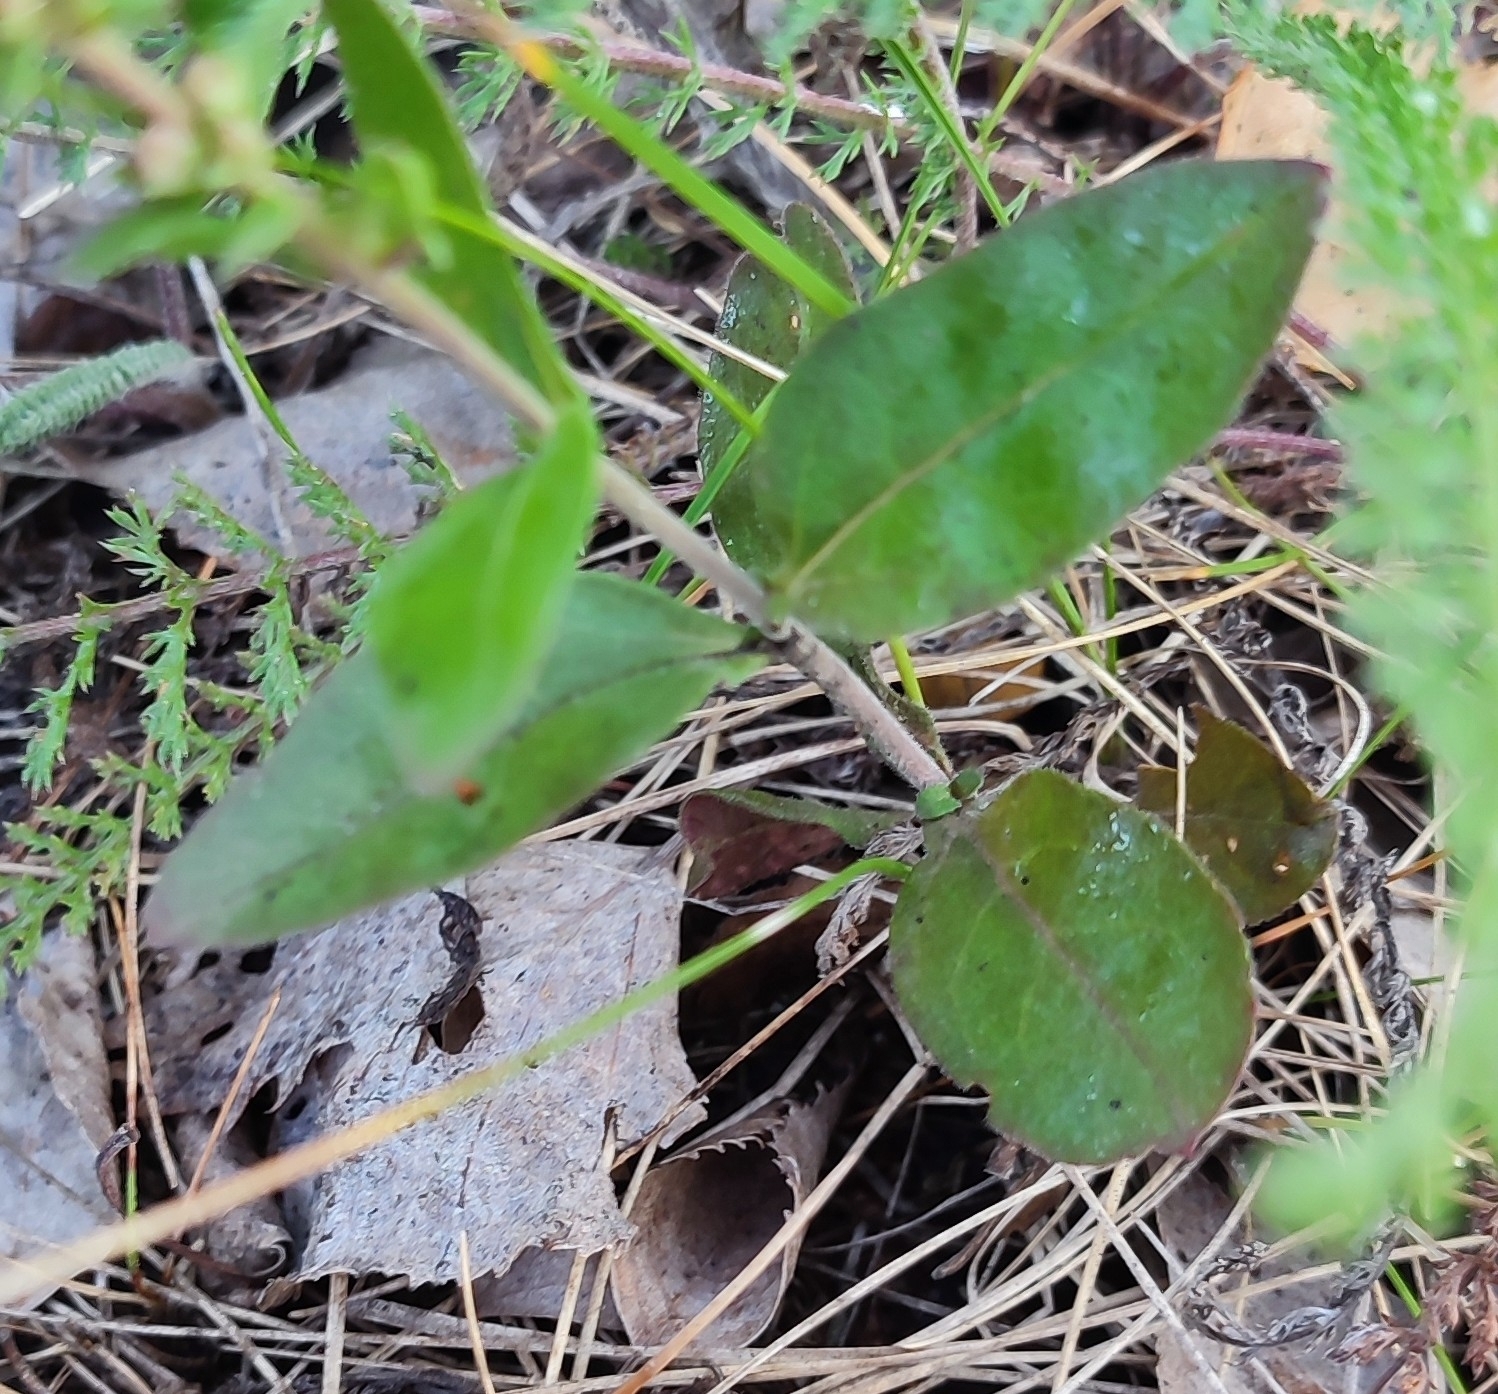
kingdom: Plantae
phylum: Tracheophyta
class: Magnoliopsida
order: Lamiales
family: Plantaginaceae
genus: Veronica
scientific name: Veronica spicata
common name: Spiked speedwell
